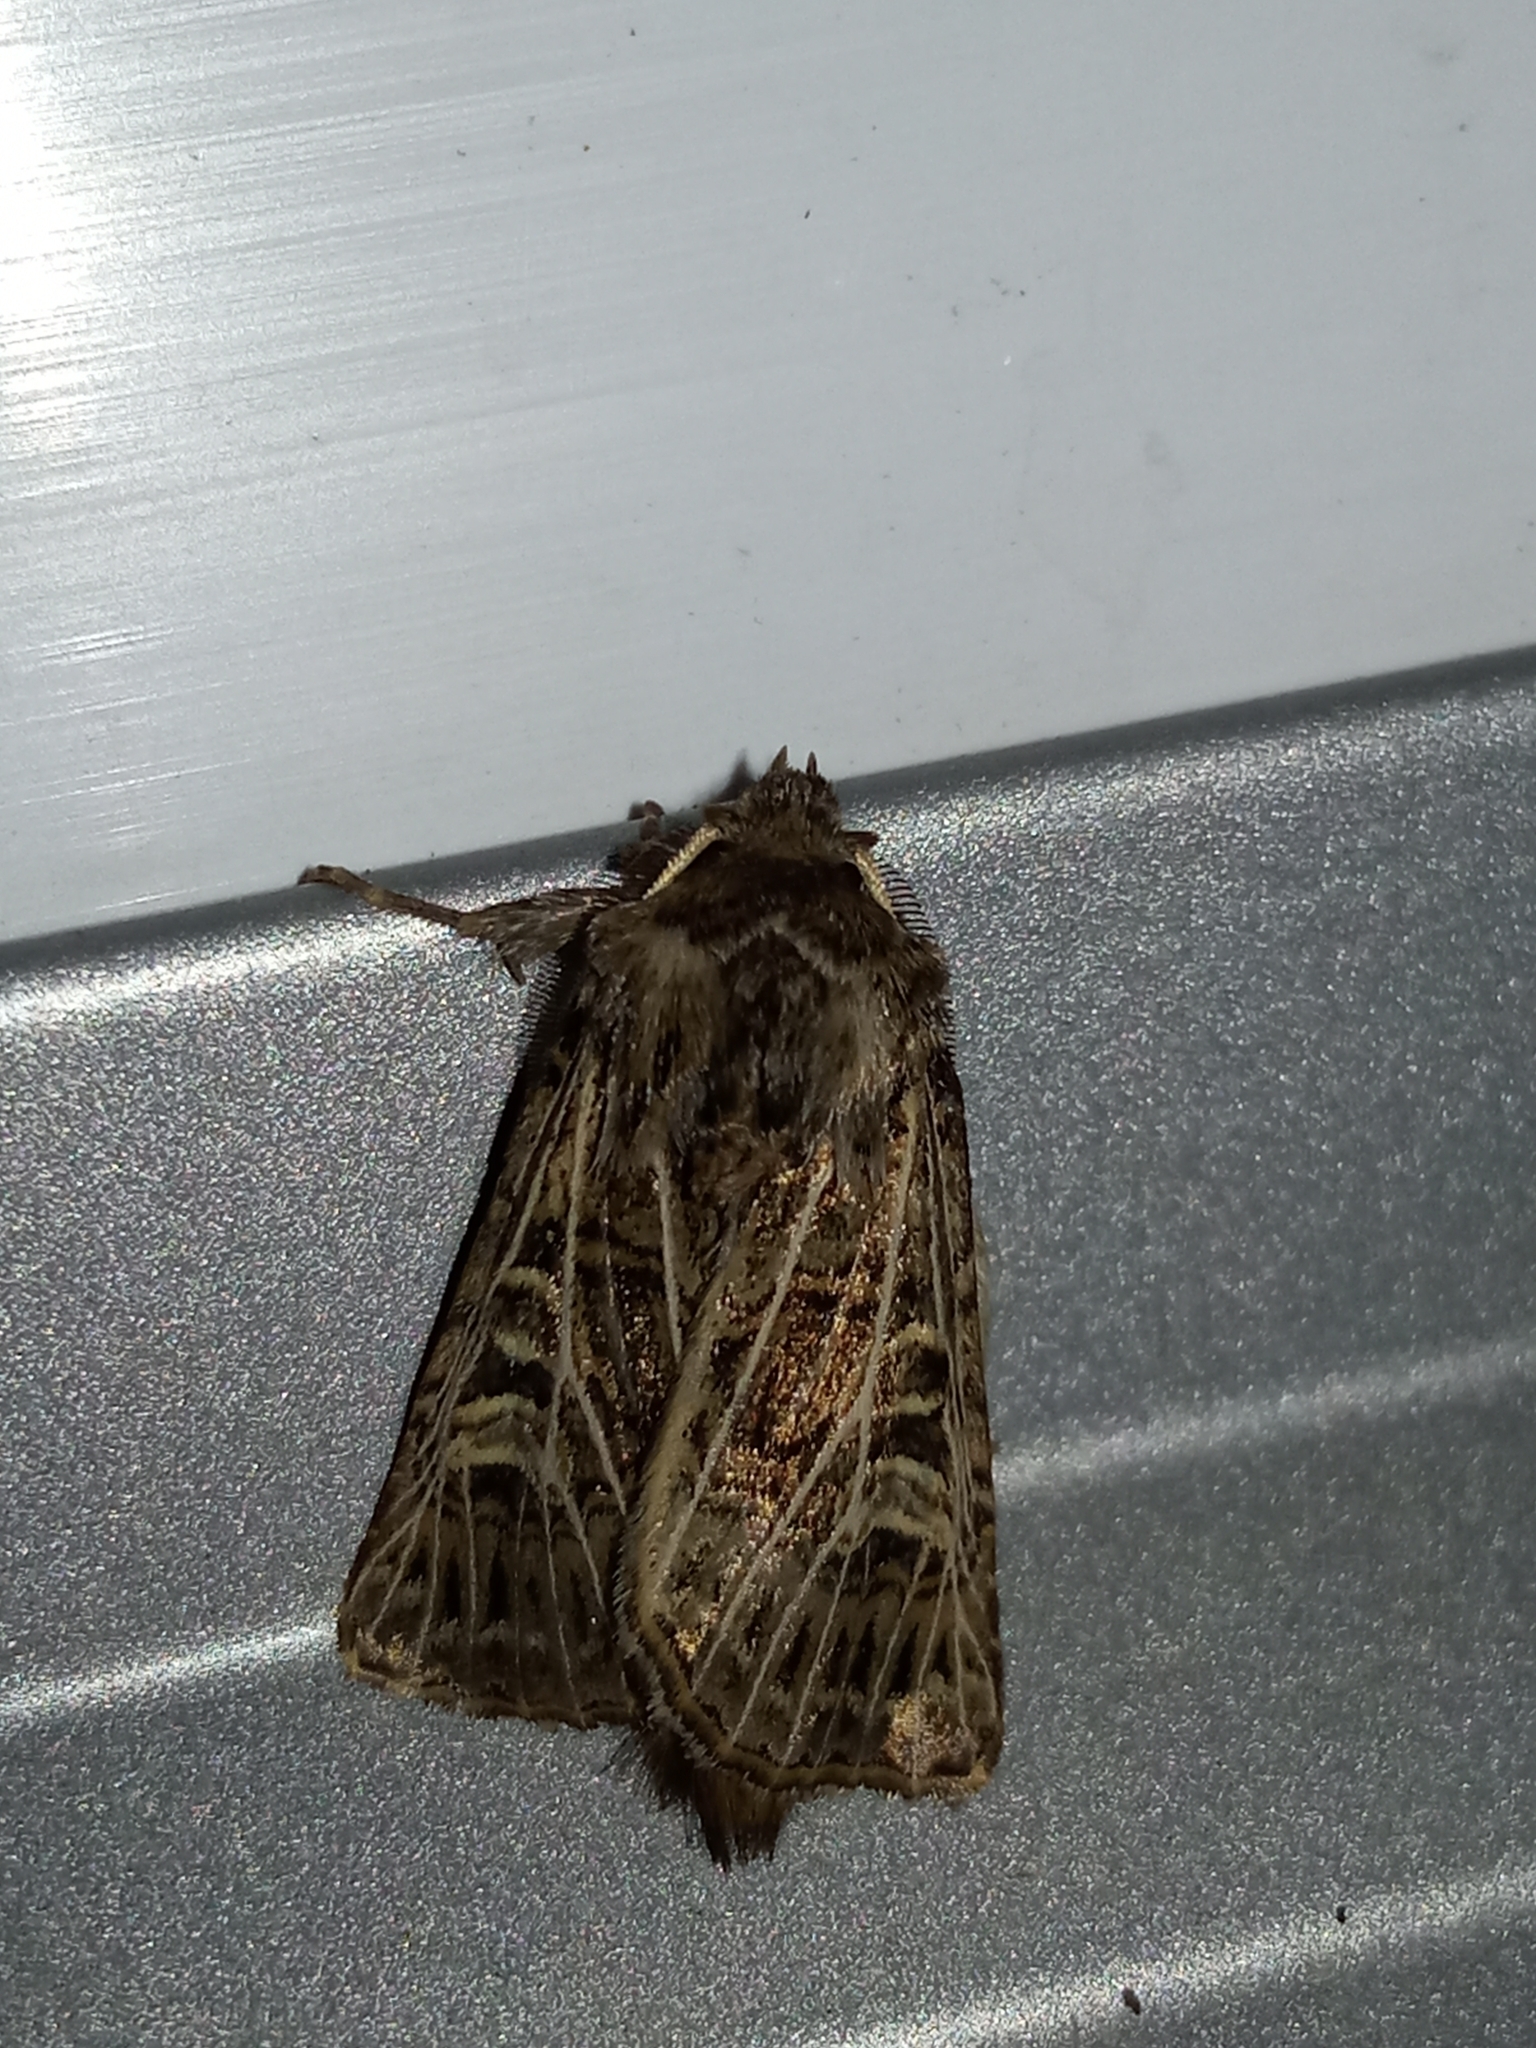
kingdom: Animalia
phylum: Arthropoda
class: Insecta
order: Lepidoptera
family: Noctuidae
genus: Tholera
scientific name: Tholera decimalis
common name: Feathered gothic
